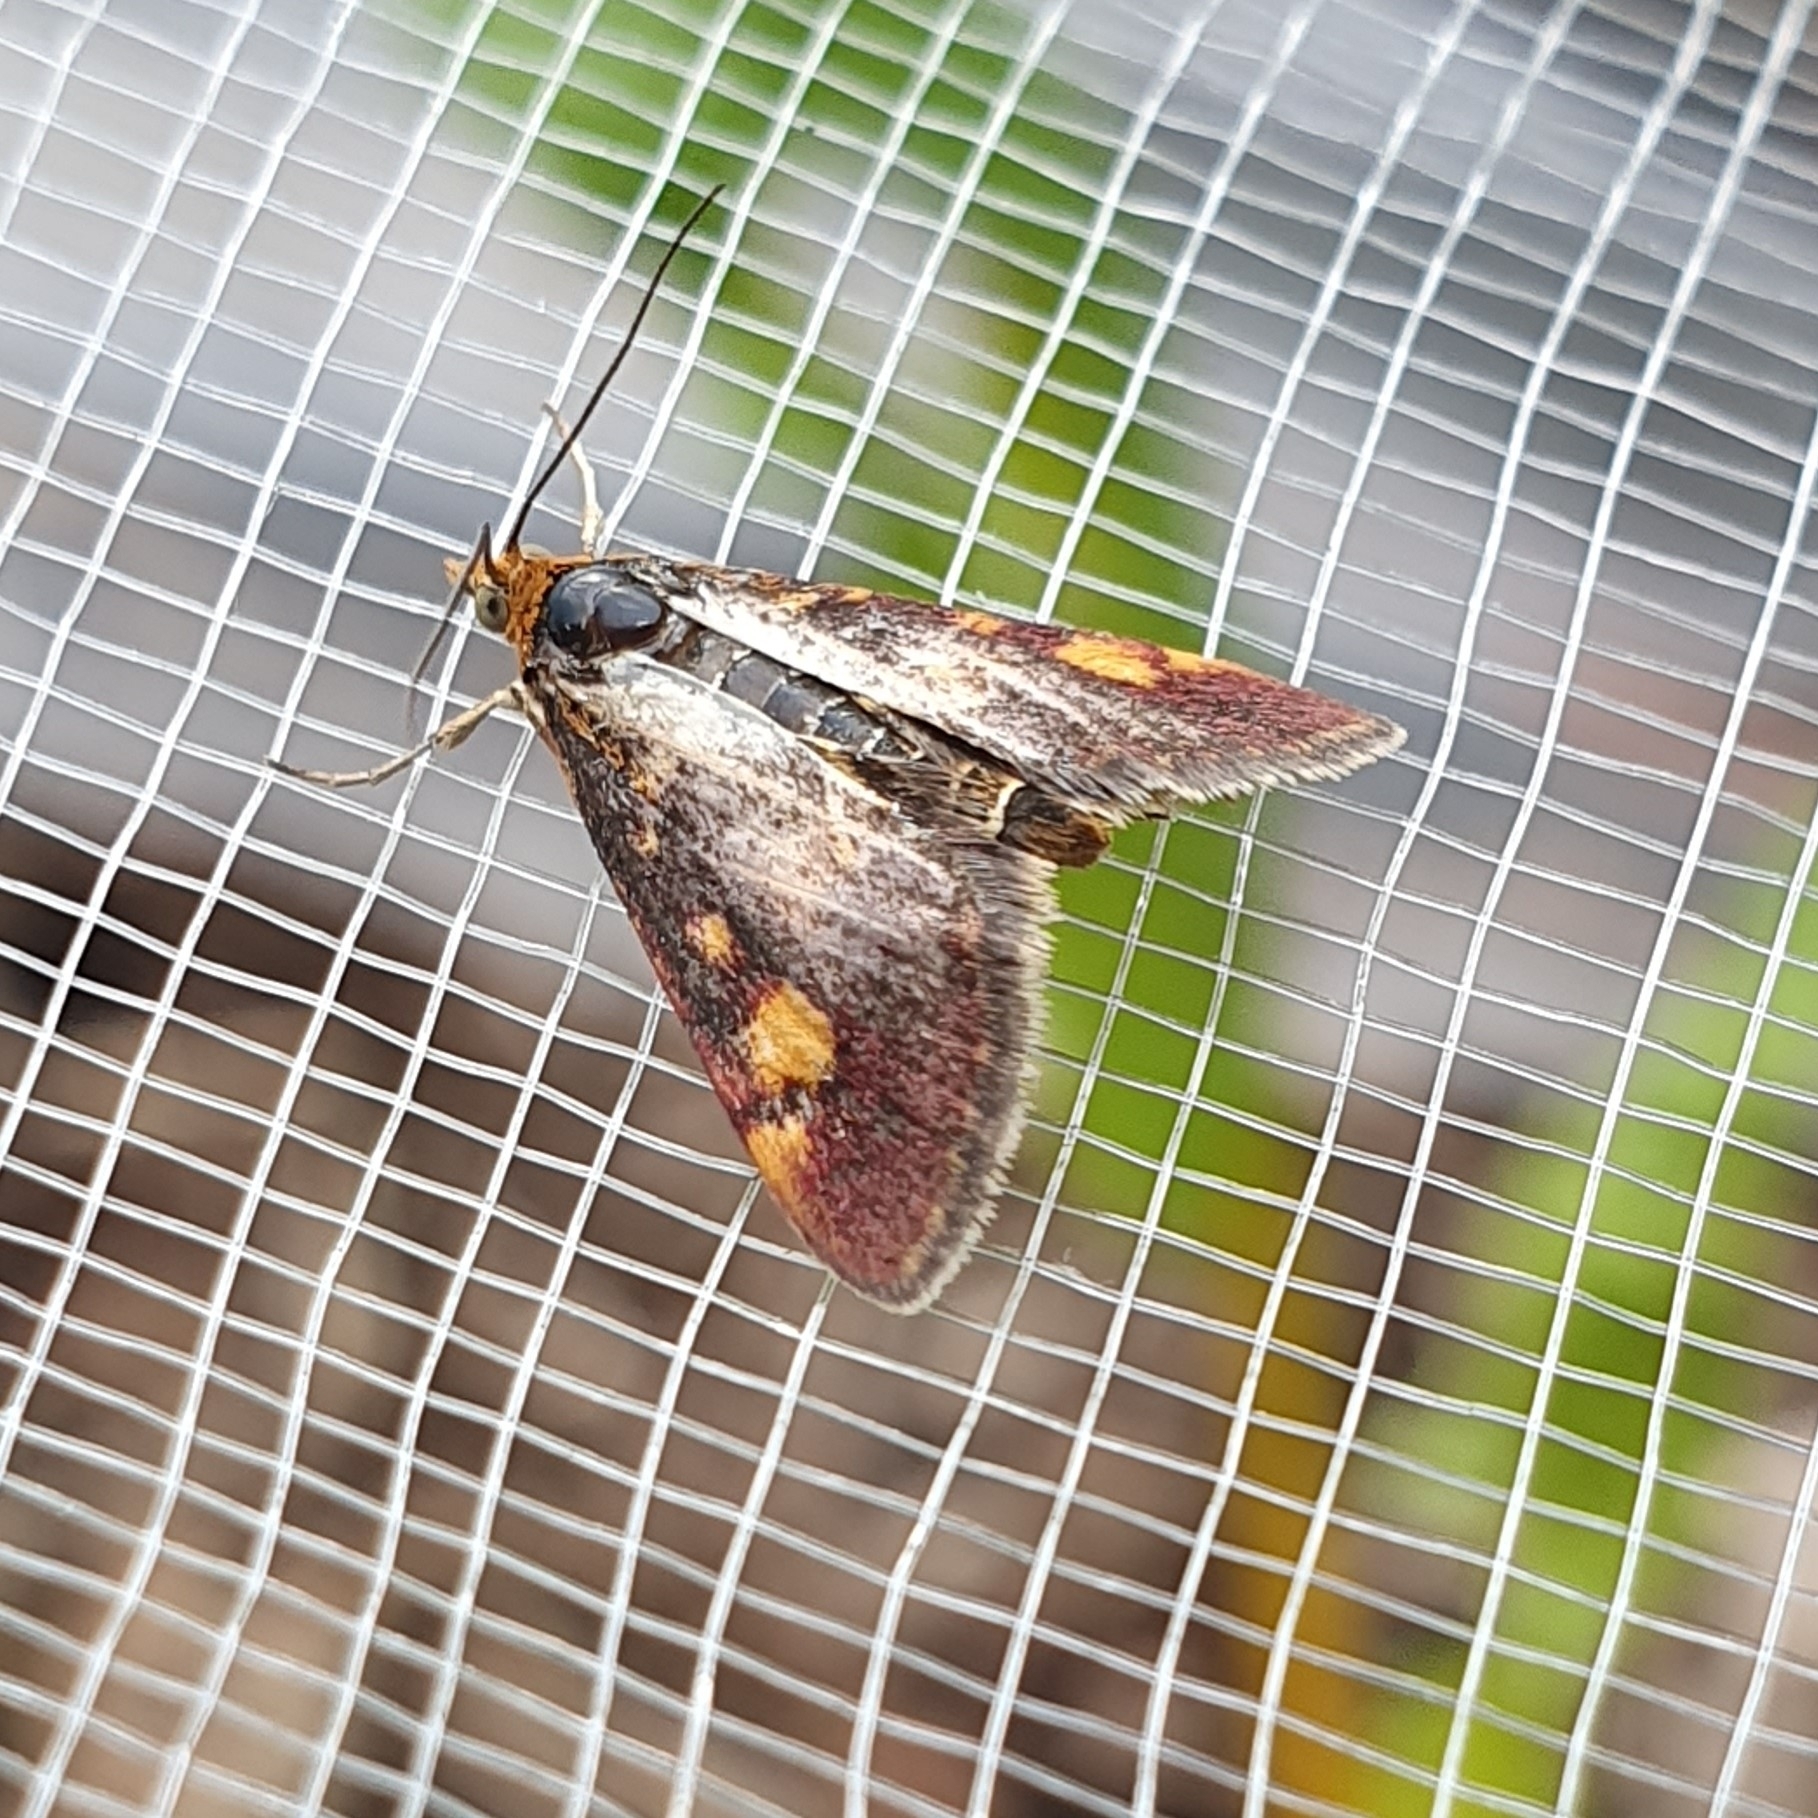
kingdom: Animalia
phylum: Arthropoda
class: Insecta
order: Lepidoptera
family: Crambidae
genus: Pyrausta
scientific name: Pyrausta purpuralis
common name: Common purple & gold
